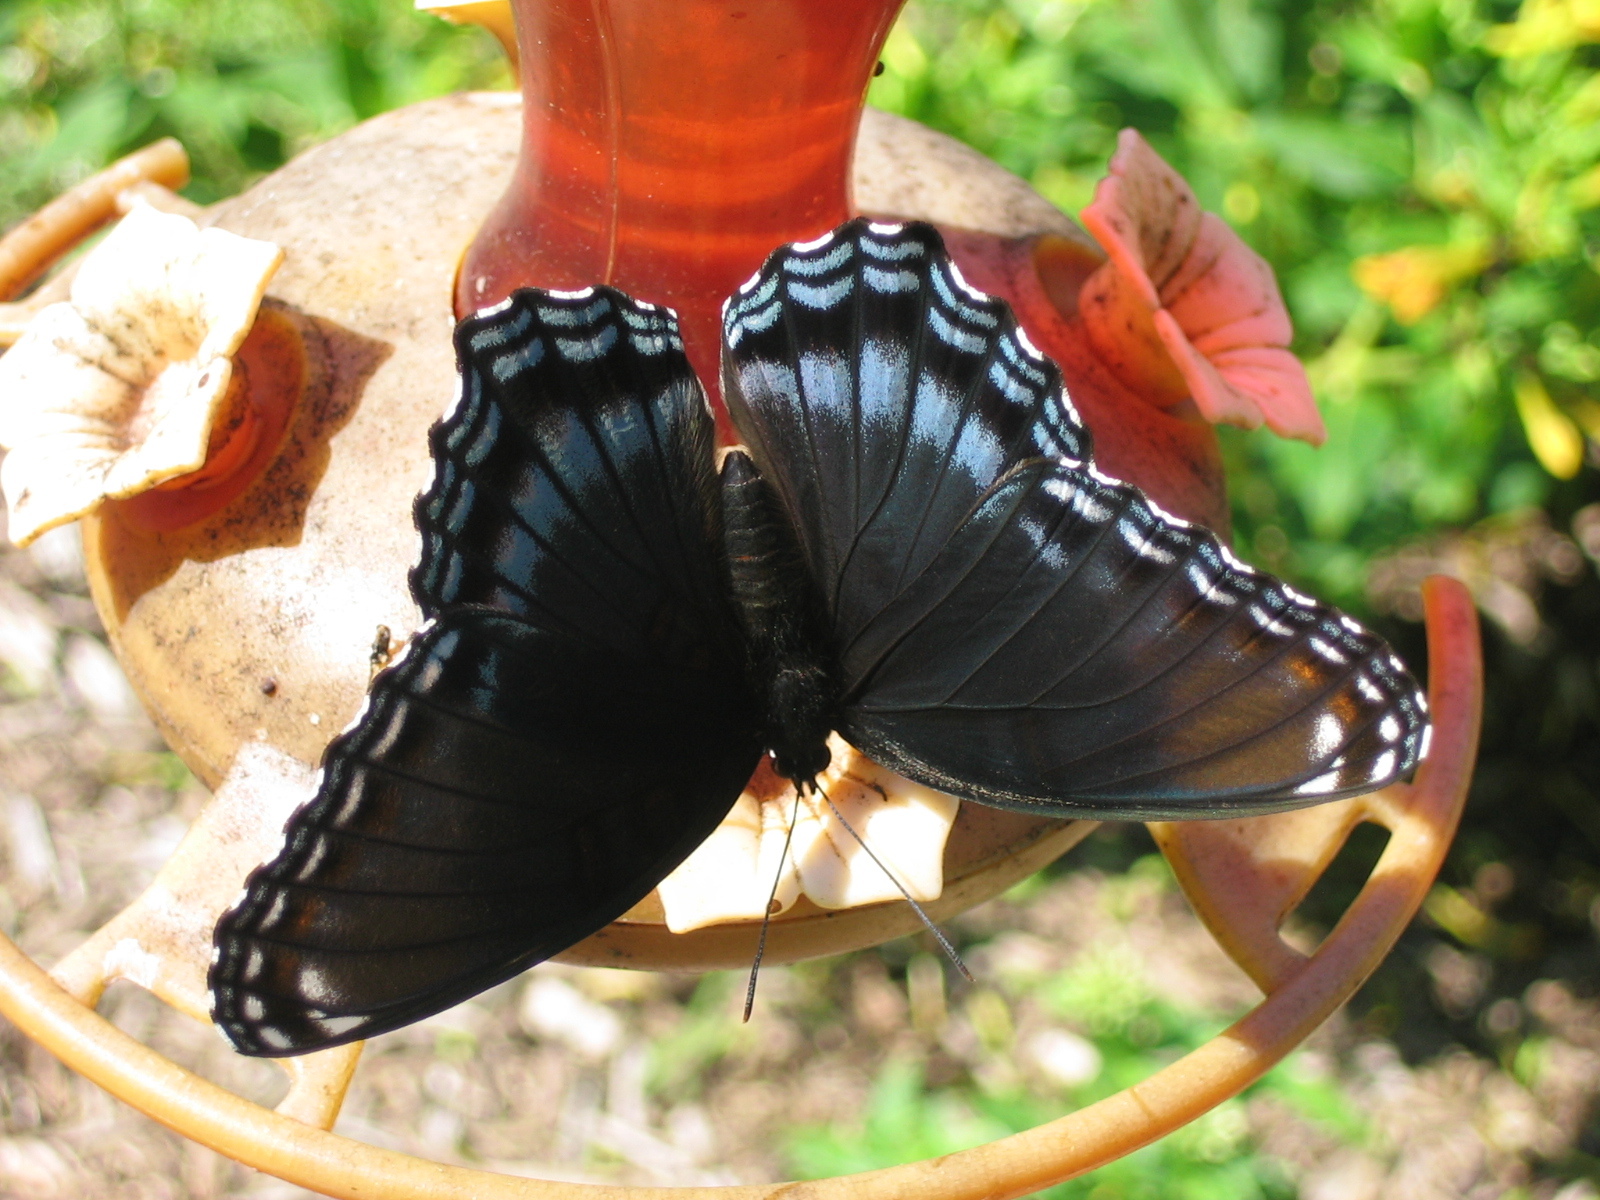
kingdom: Animalia
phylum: Arthropoda
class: Insecta
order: Lepidoptera
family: Nymphalidae
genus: Limenitis
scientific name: Limenitis astyanax
